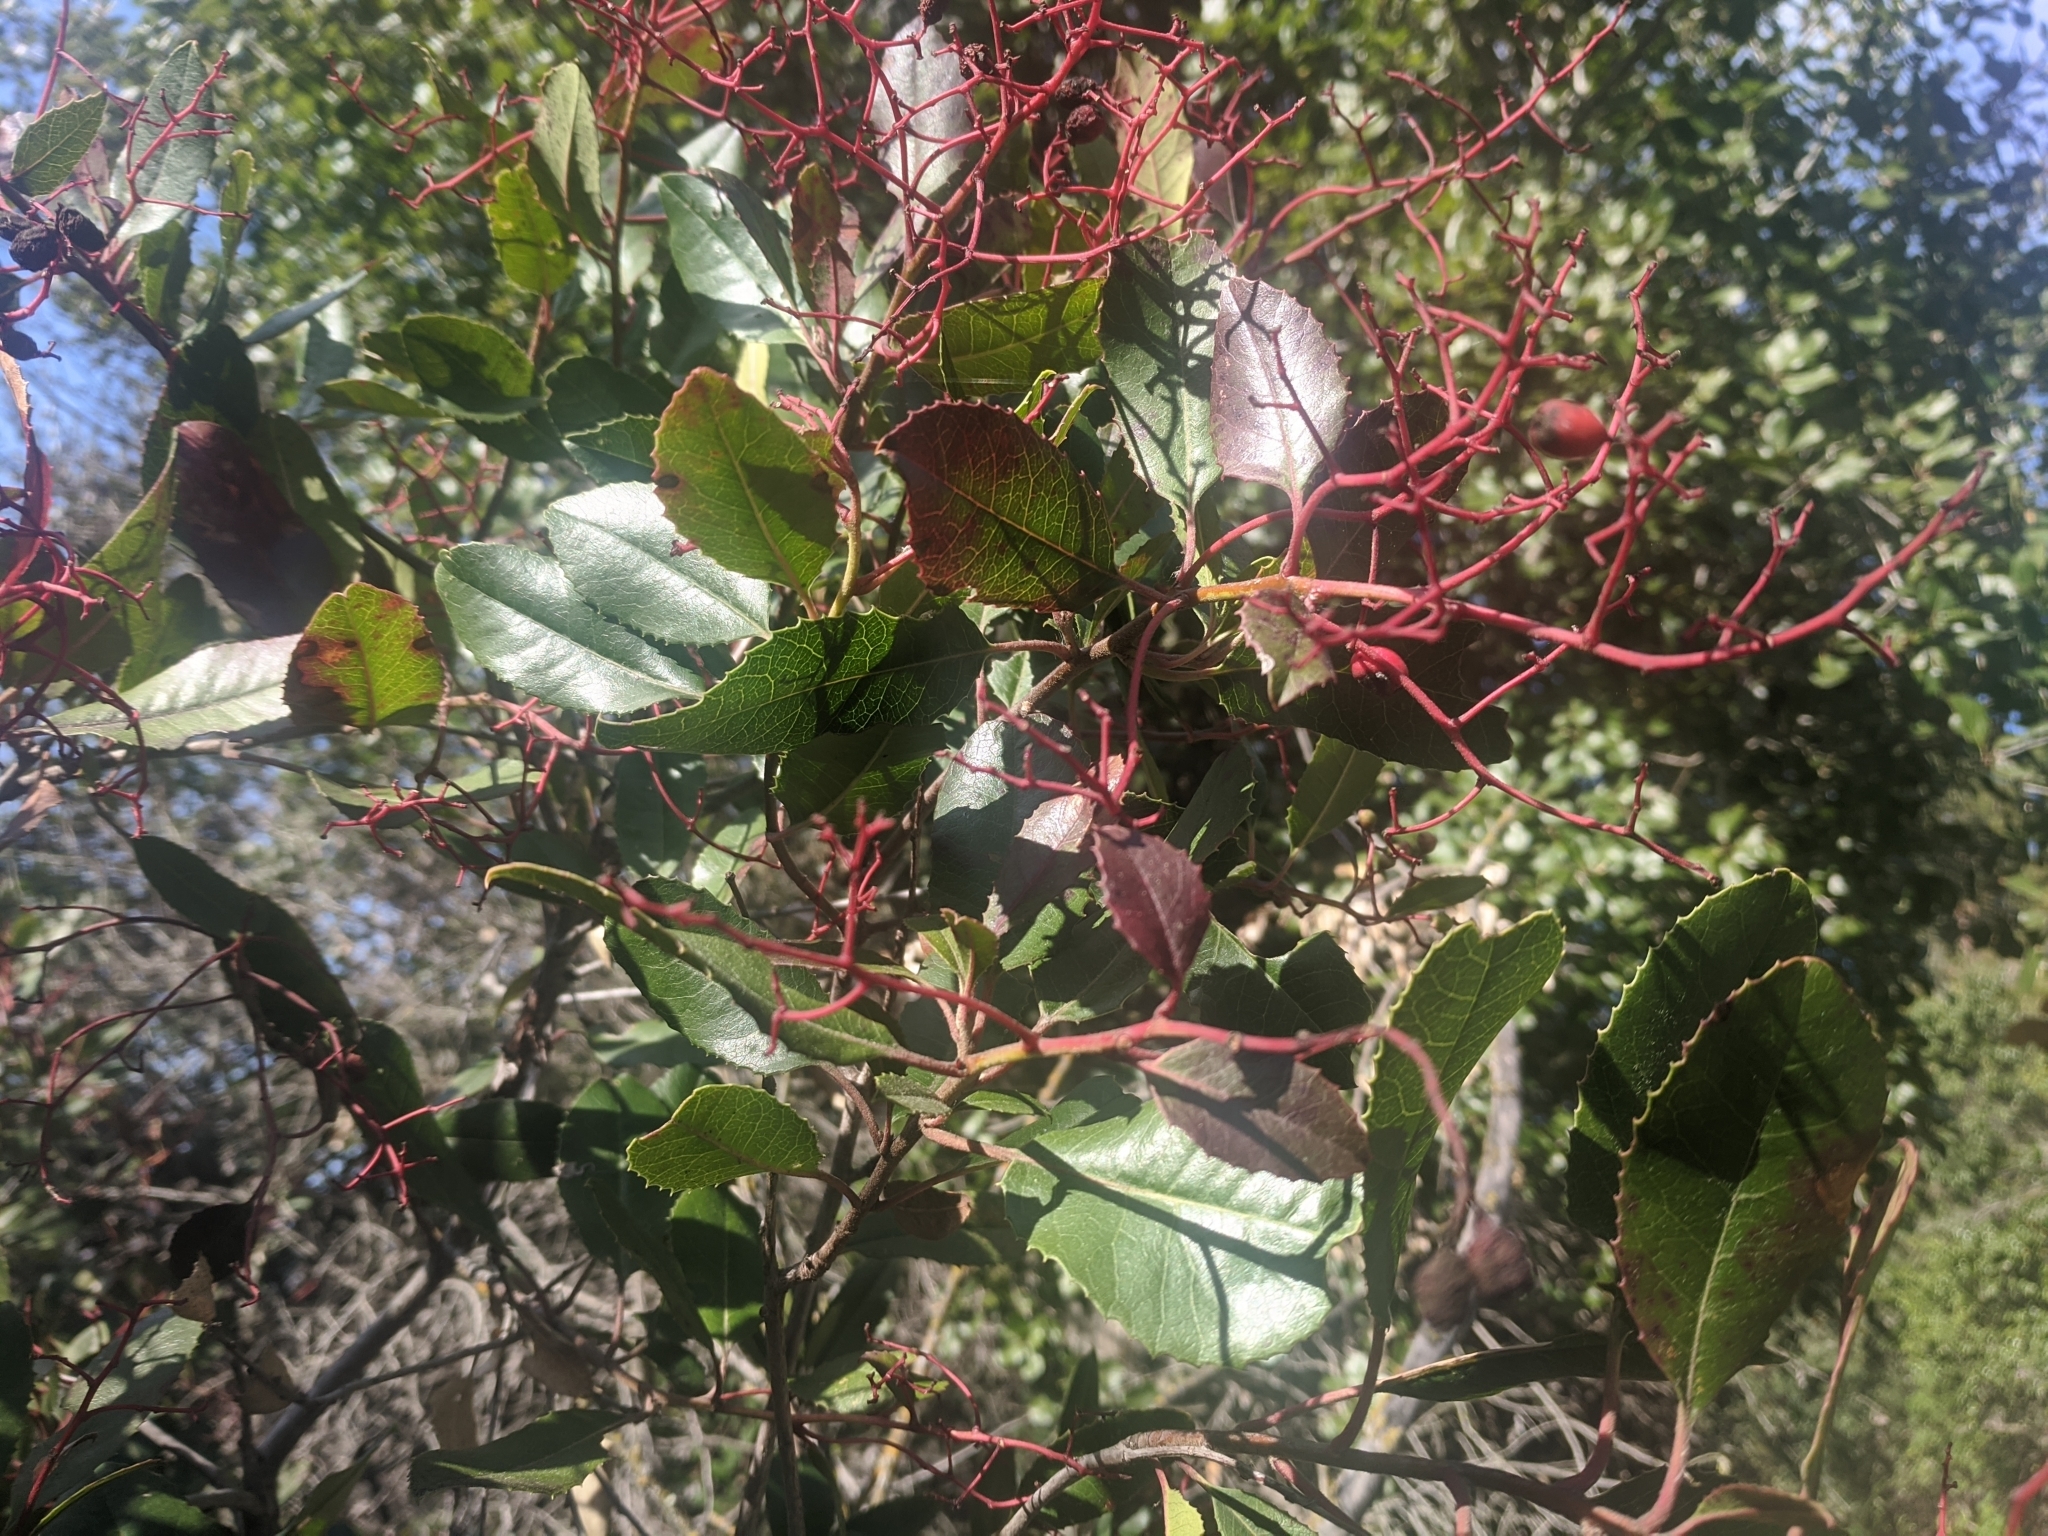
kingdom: Plantae
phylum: Tracheophyta
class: Magnoliopsida
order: Rosales
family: Rosaceae
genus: Heteromeles
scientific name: Heteromeles arbutifolia
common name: California-holly
